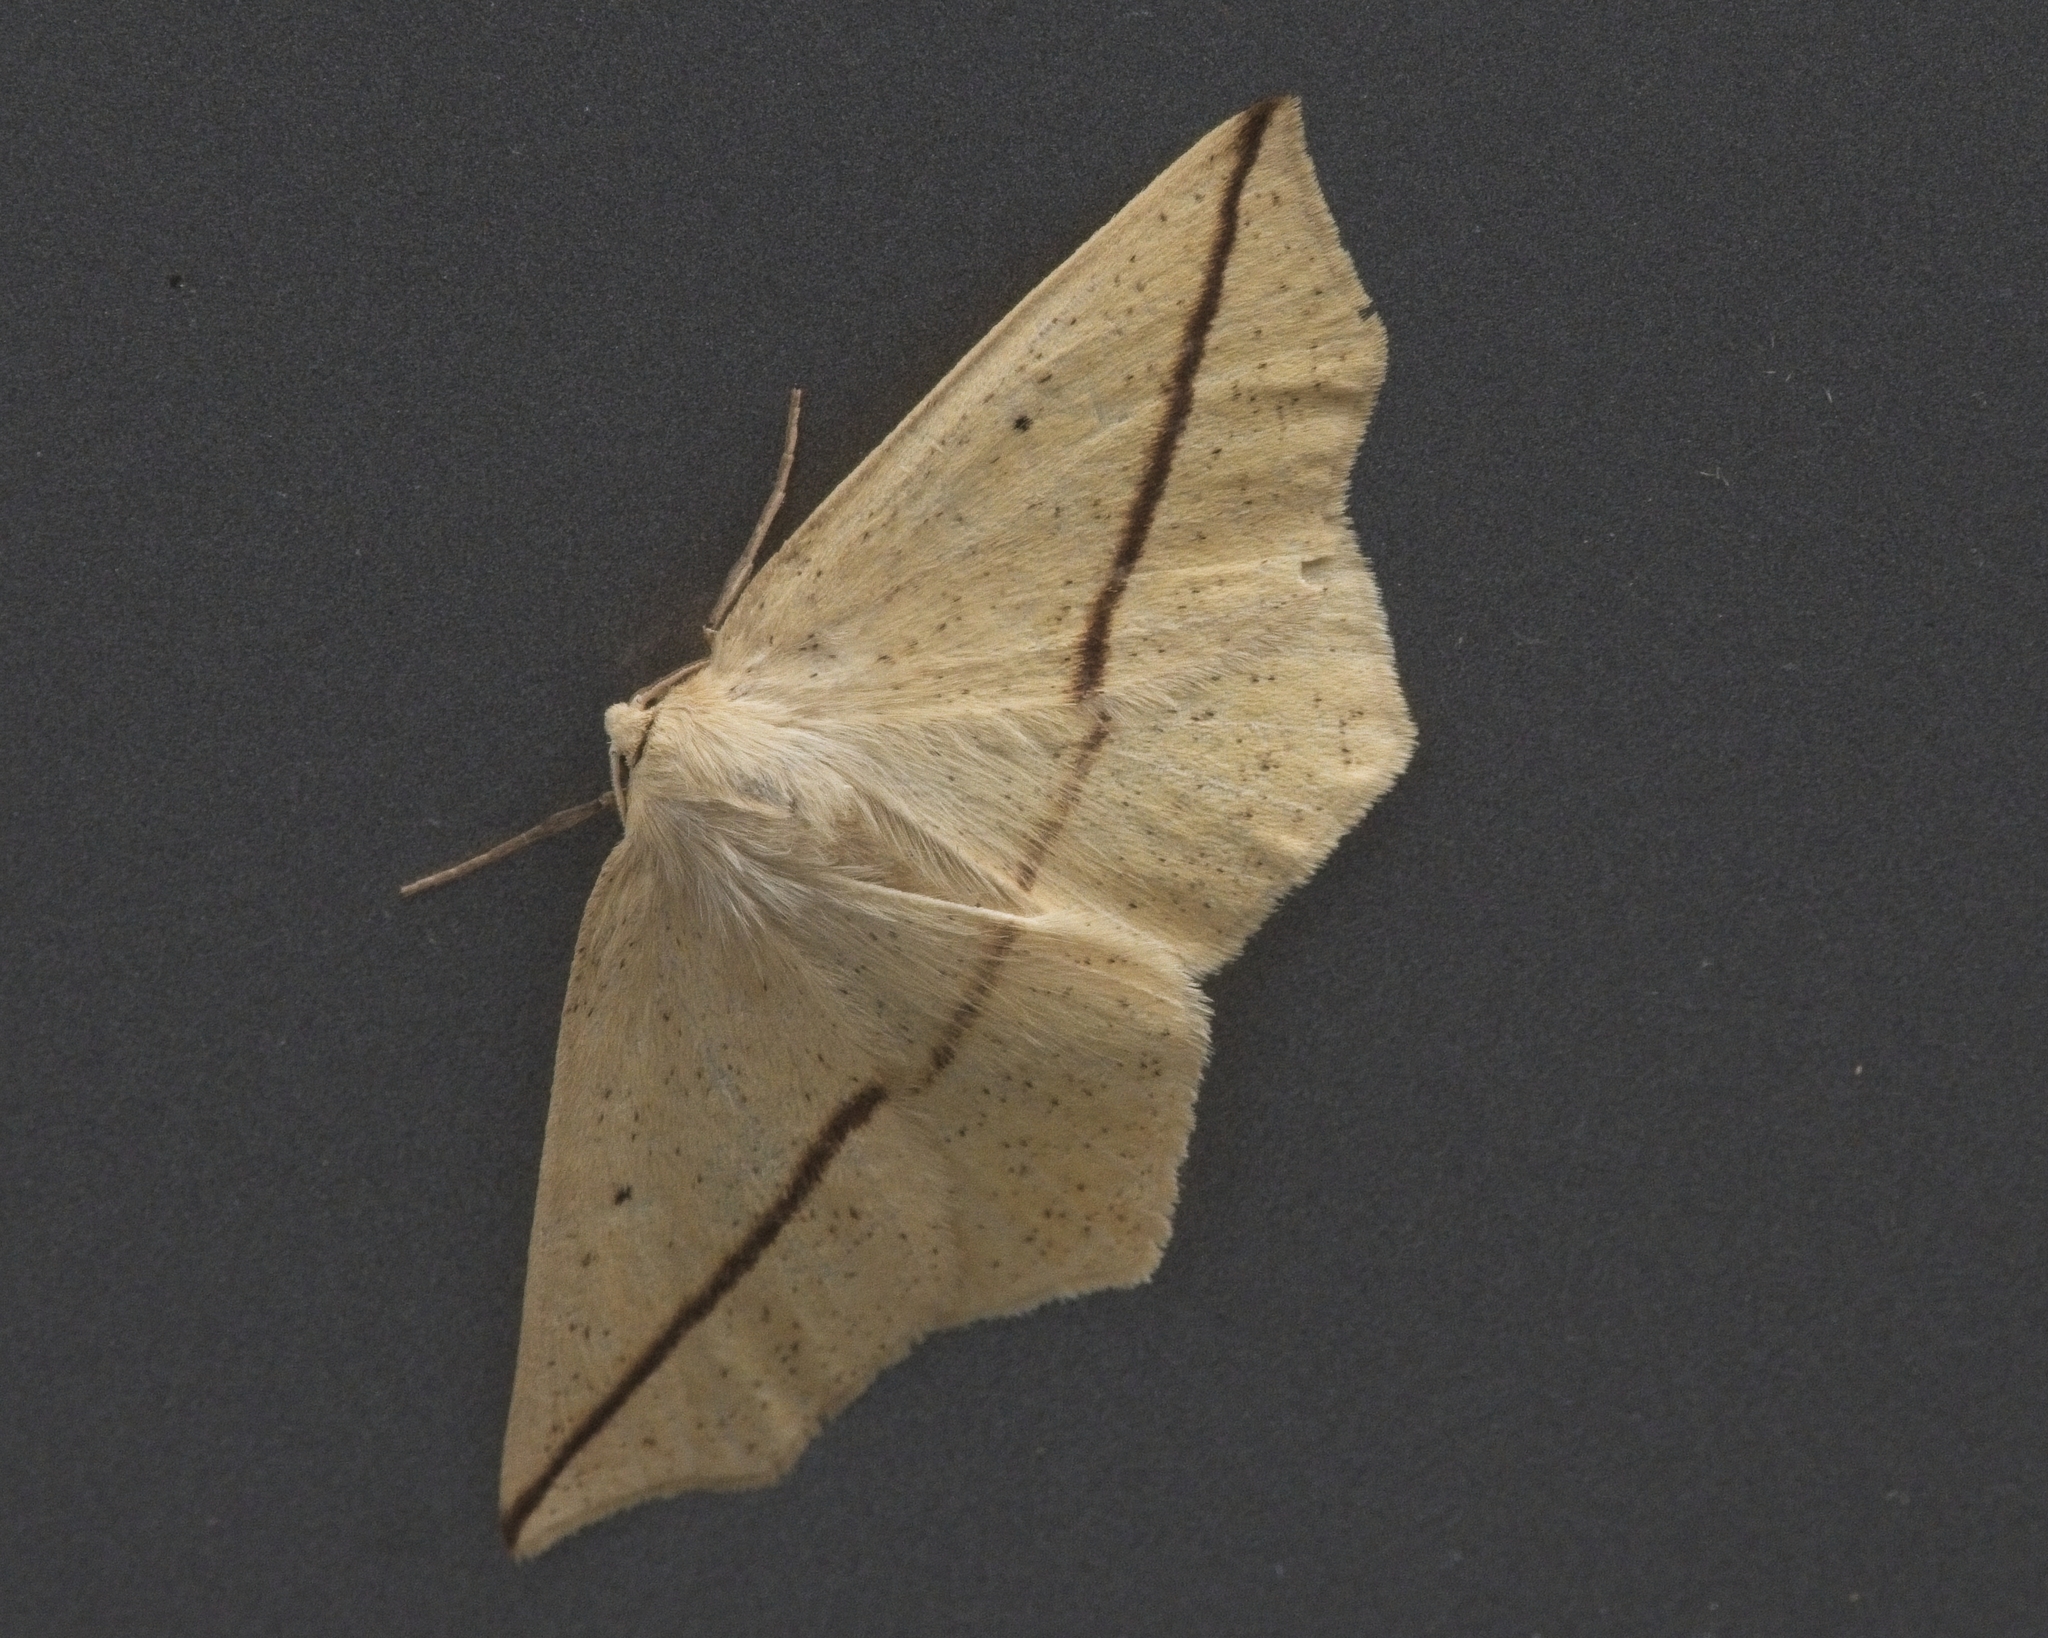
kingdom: Animalia
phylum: Arthropoda
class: Insecta
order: Lepidoptera
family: Geometridae
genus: Tetracis
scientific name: Tetracis crocallata
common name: Yellow slant-line
